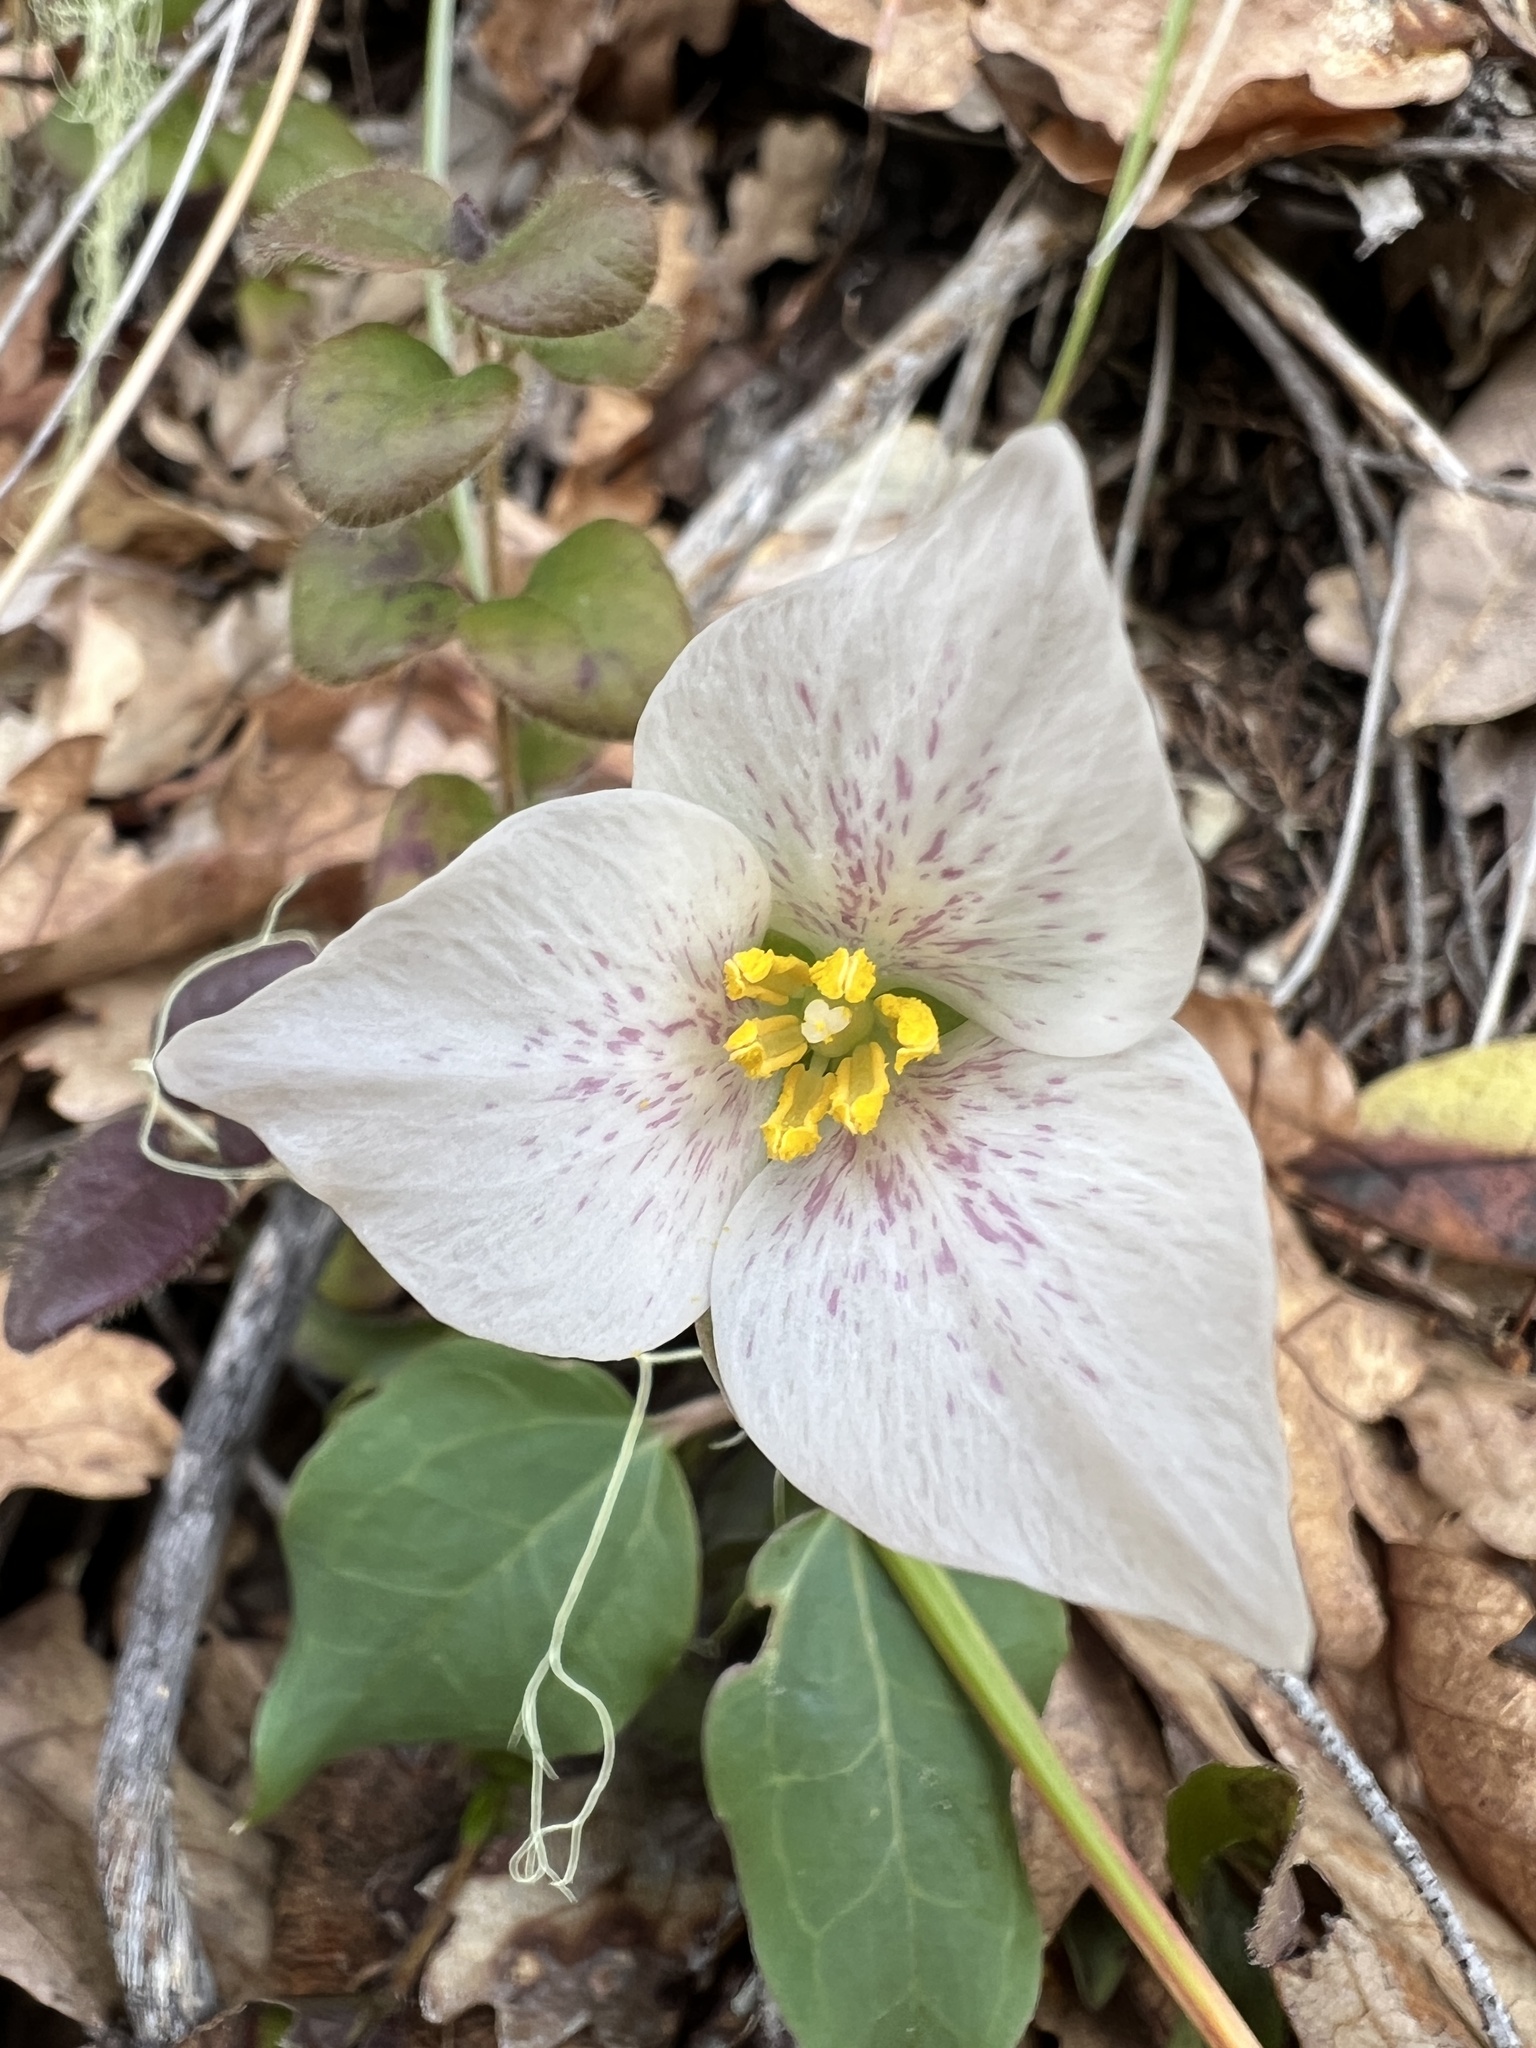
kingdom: Plantae
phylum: Tracheophyta
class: Liliopsida
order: Liliales
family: Melanthiaceae
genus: Pseudotrillium
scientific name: Pseudotrillium rivale
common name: Brook wakerobin
